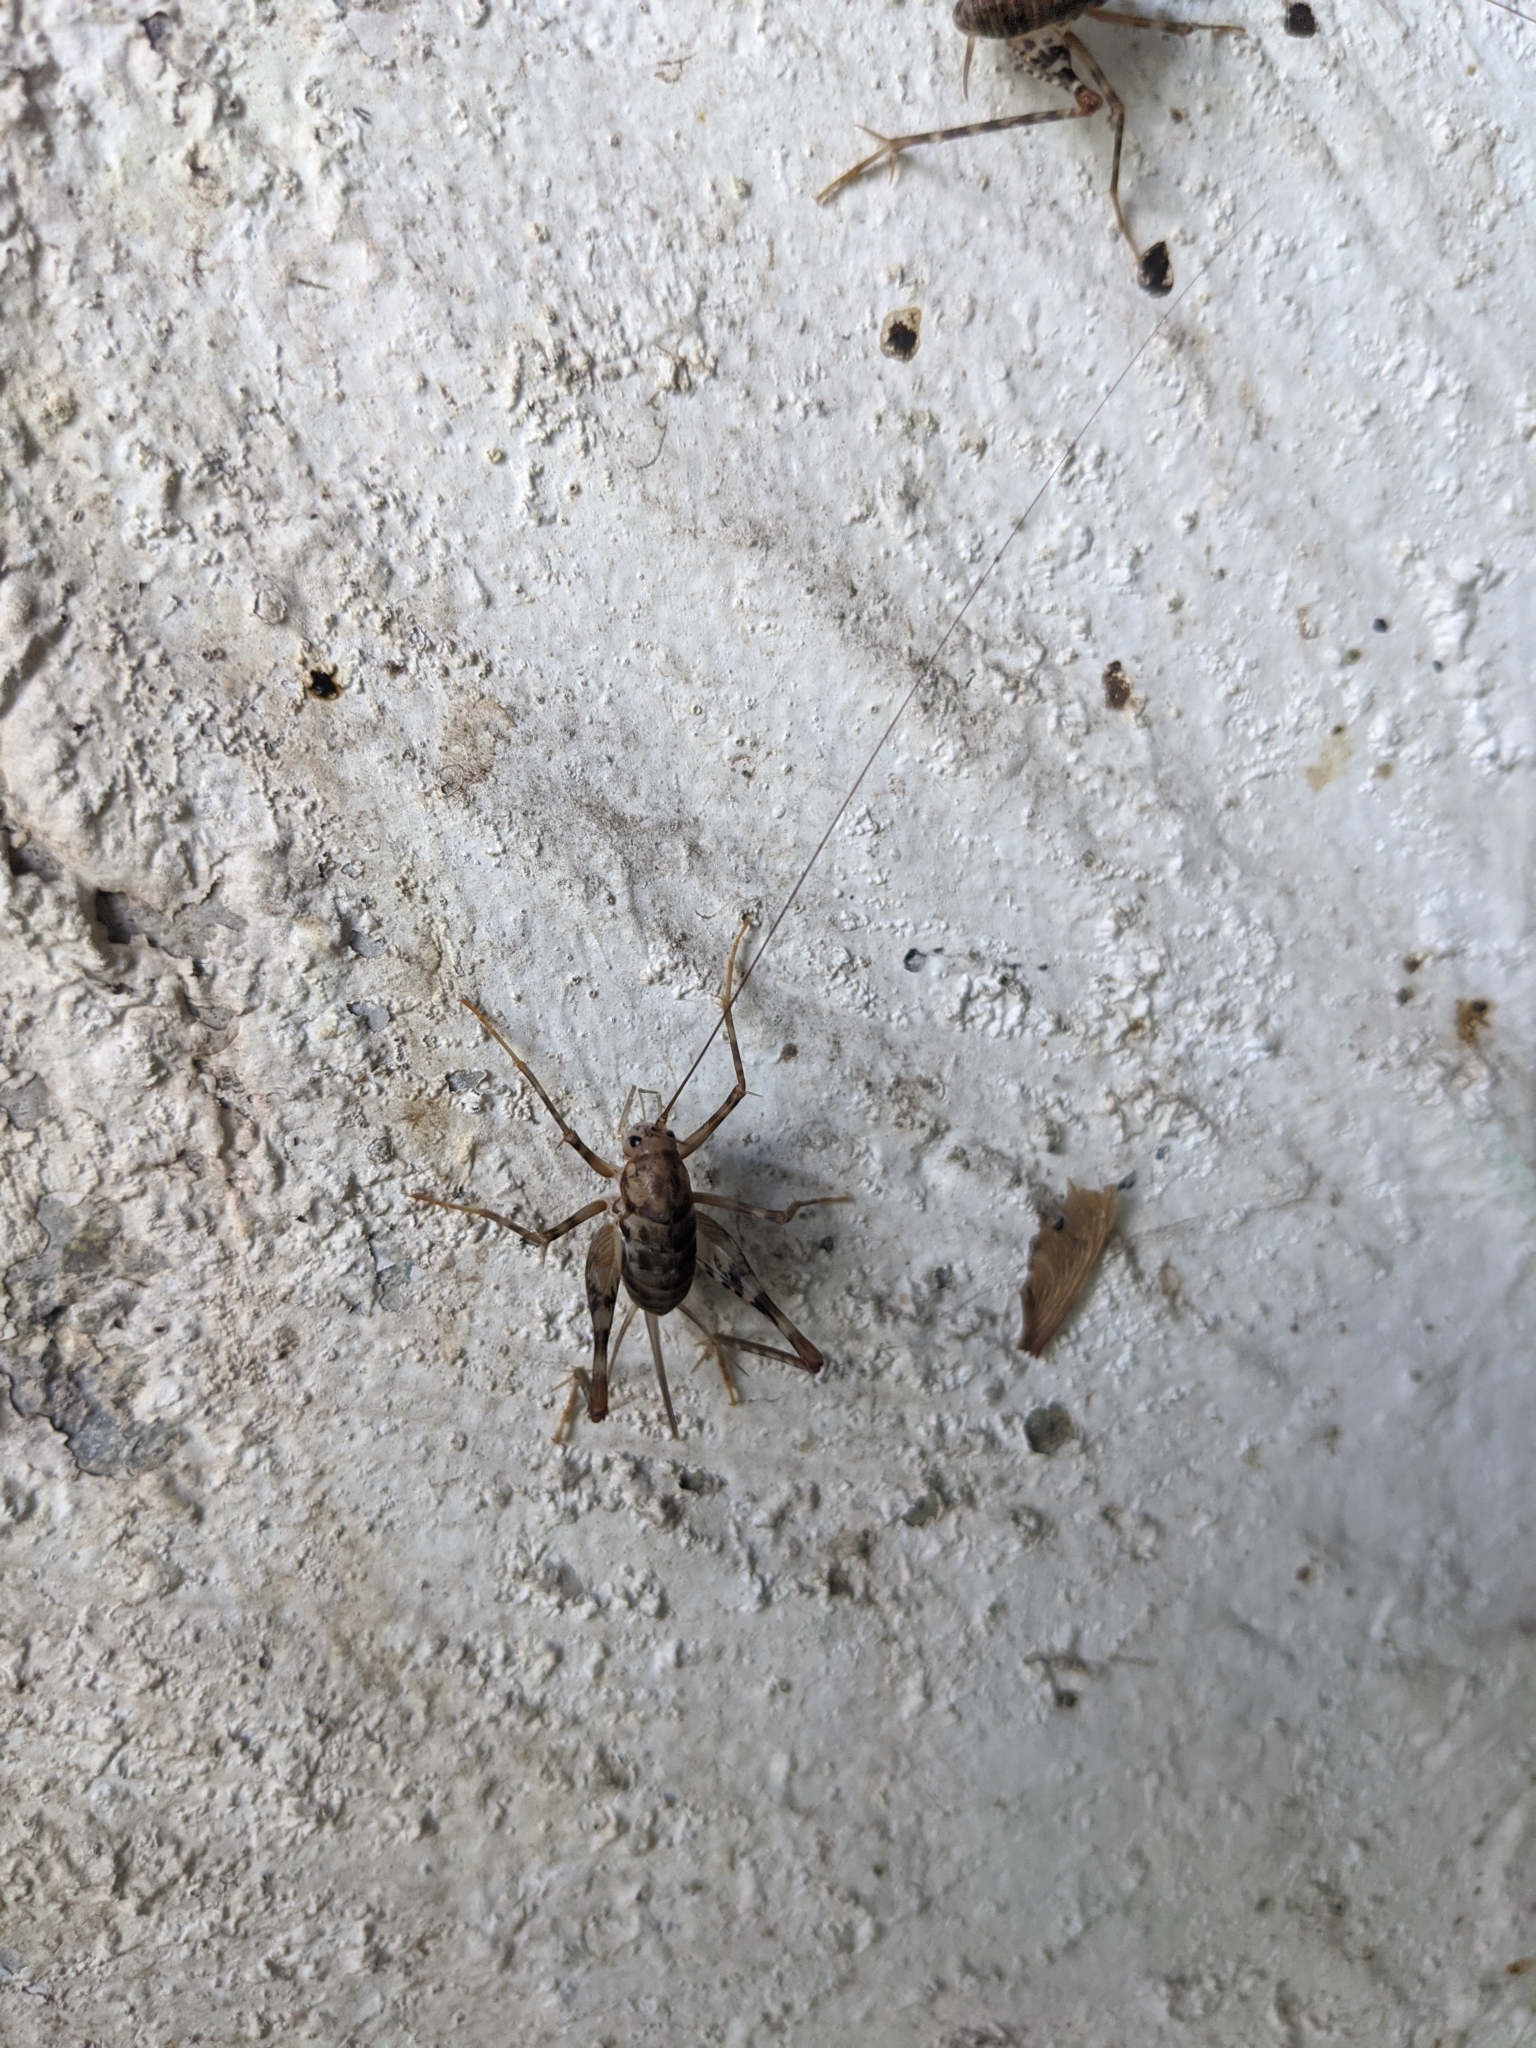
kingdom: Animalia
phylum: Arthropoda
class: Insecta
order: Orthoptera
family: Rhaphidophoridae
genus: Tachycines
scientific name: Tachycines asynamorus
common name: Greenhouse camel cricket
